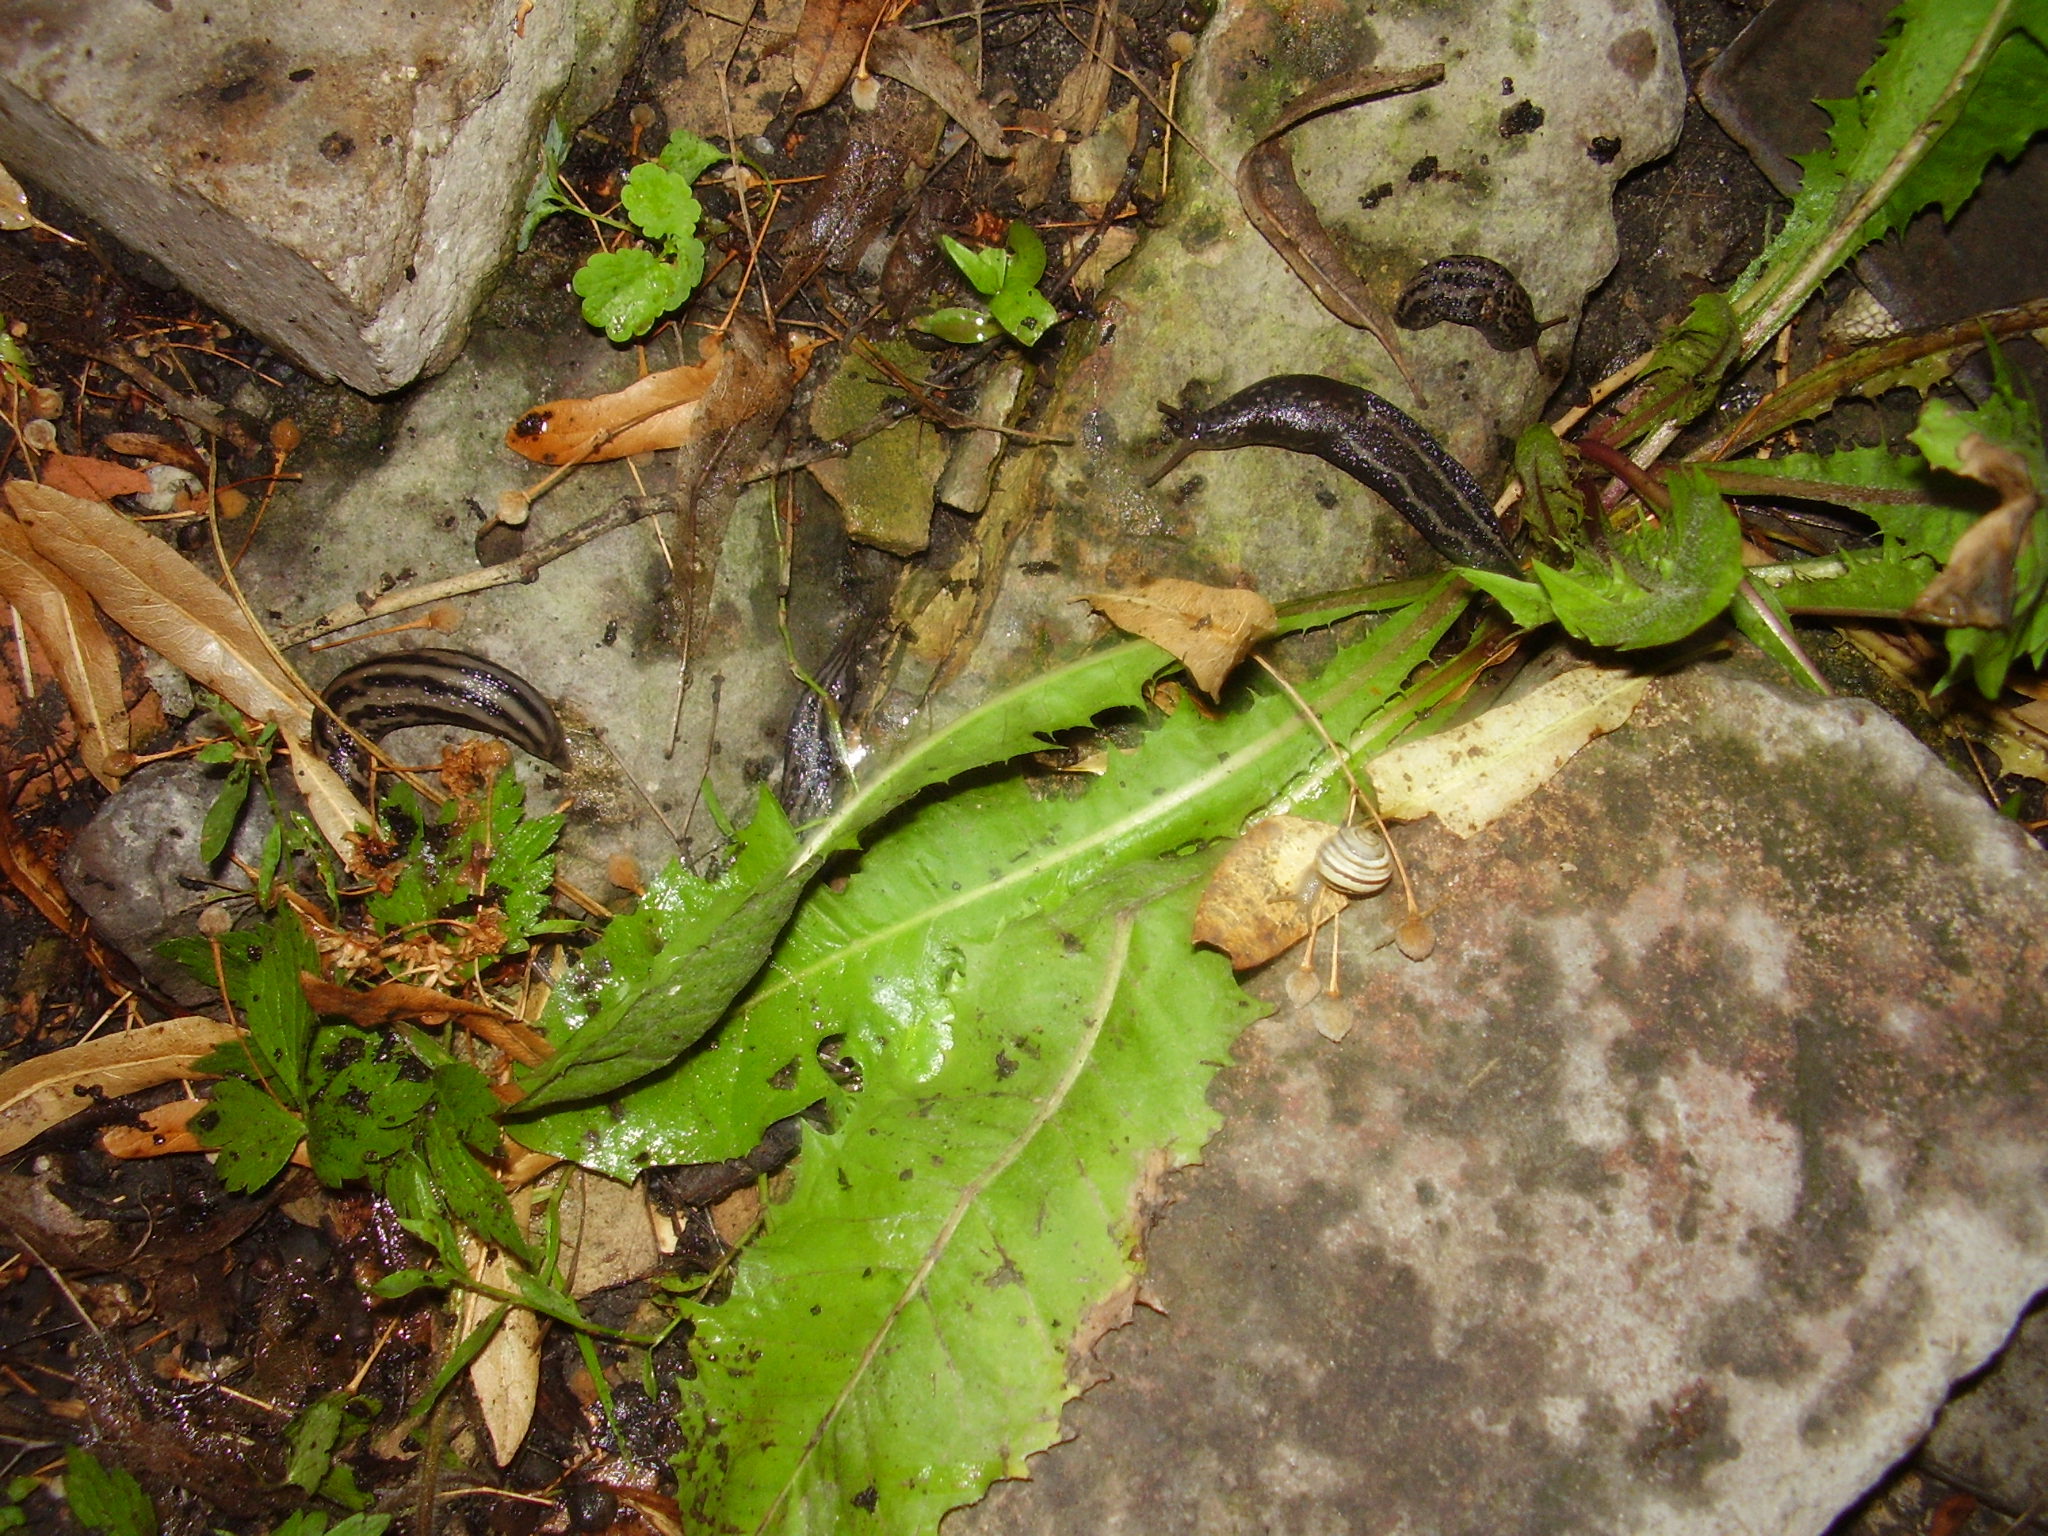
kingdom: Animalia
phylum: Mollusca
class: Gastropoda
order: Stylommatophora
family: Limacidae
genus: Limax
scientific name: Limax maximus
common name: Great grey slug
